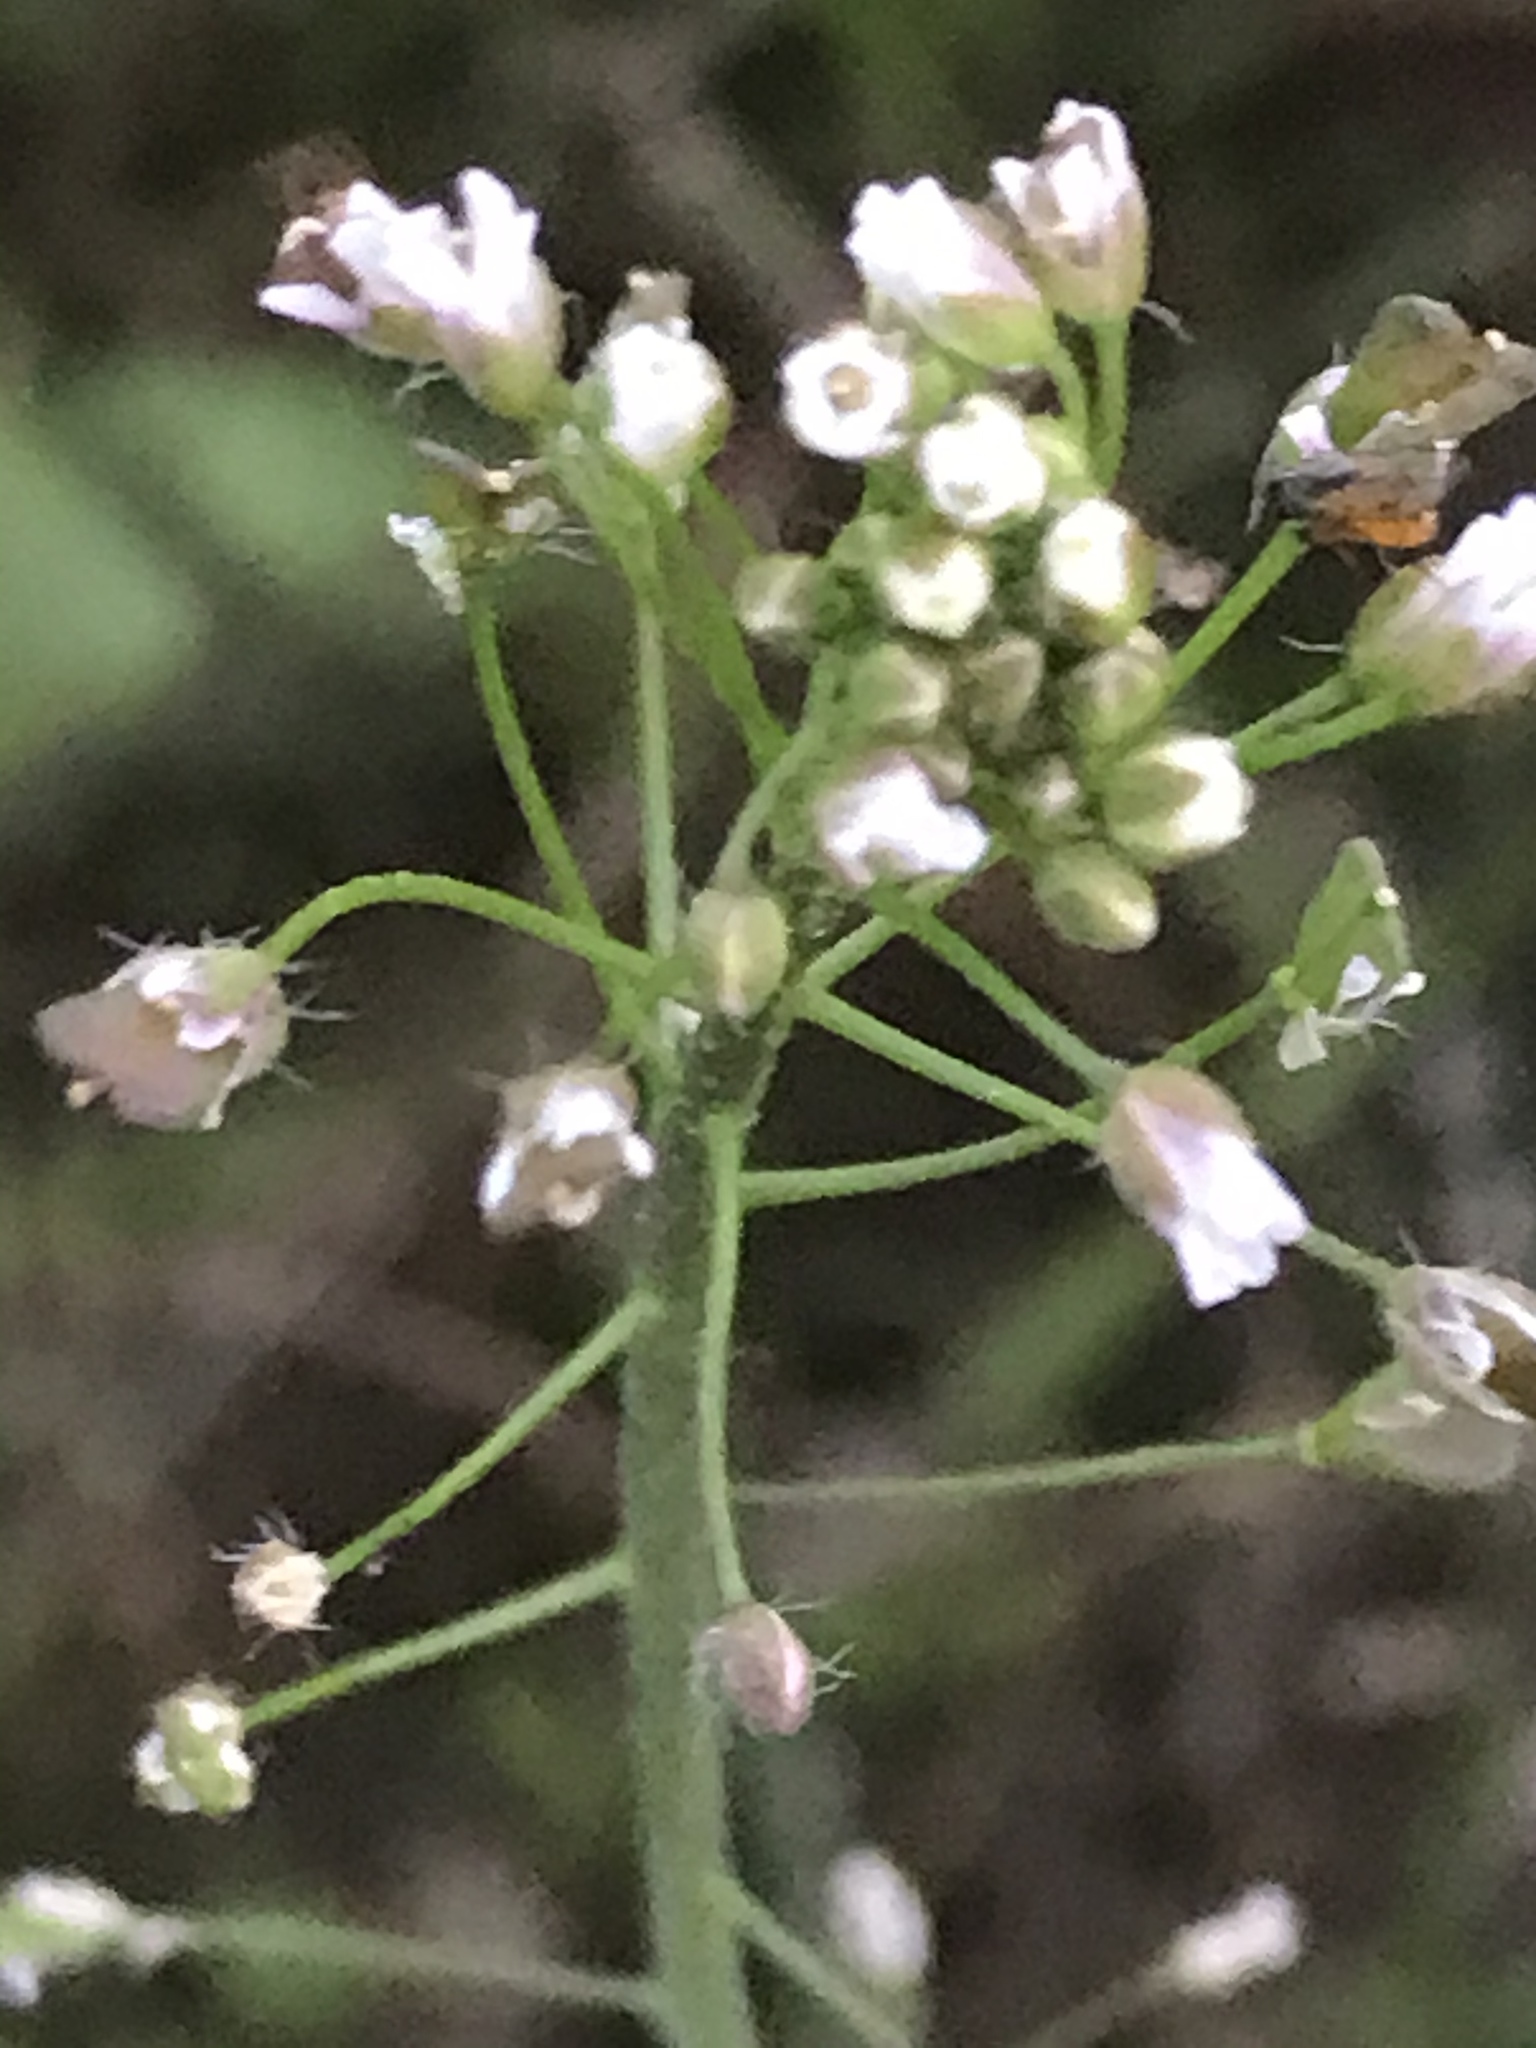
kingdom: Plantae
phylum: Tracheophyta
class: Magnoliopsida
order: Brassicales
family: Brassicaceae
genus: Capsella
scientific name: Capsella bursa-pastoris
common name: Shepherd's purse
